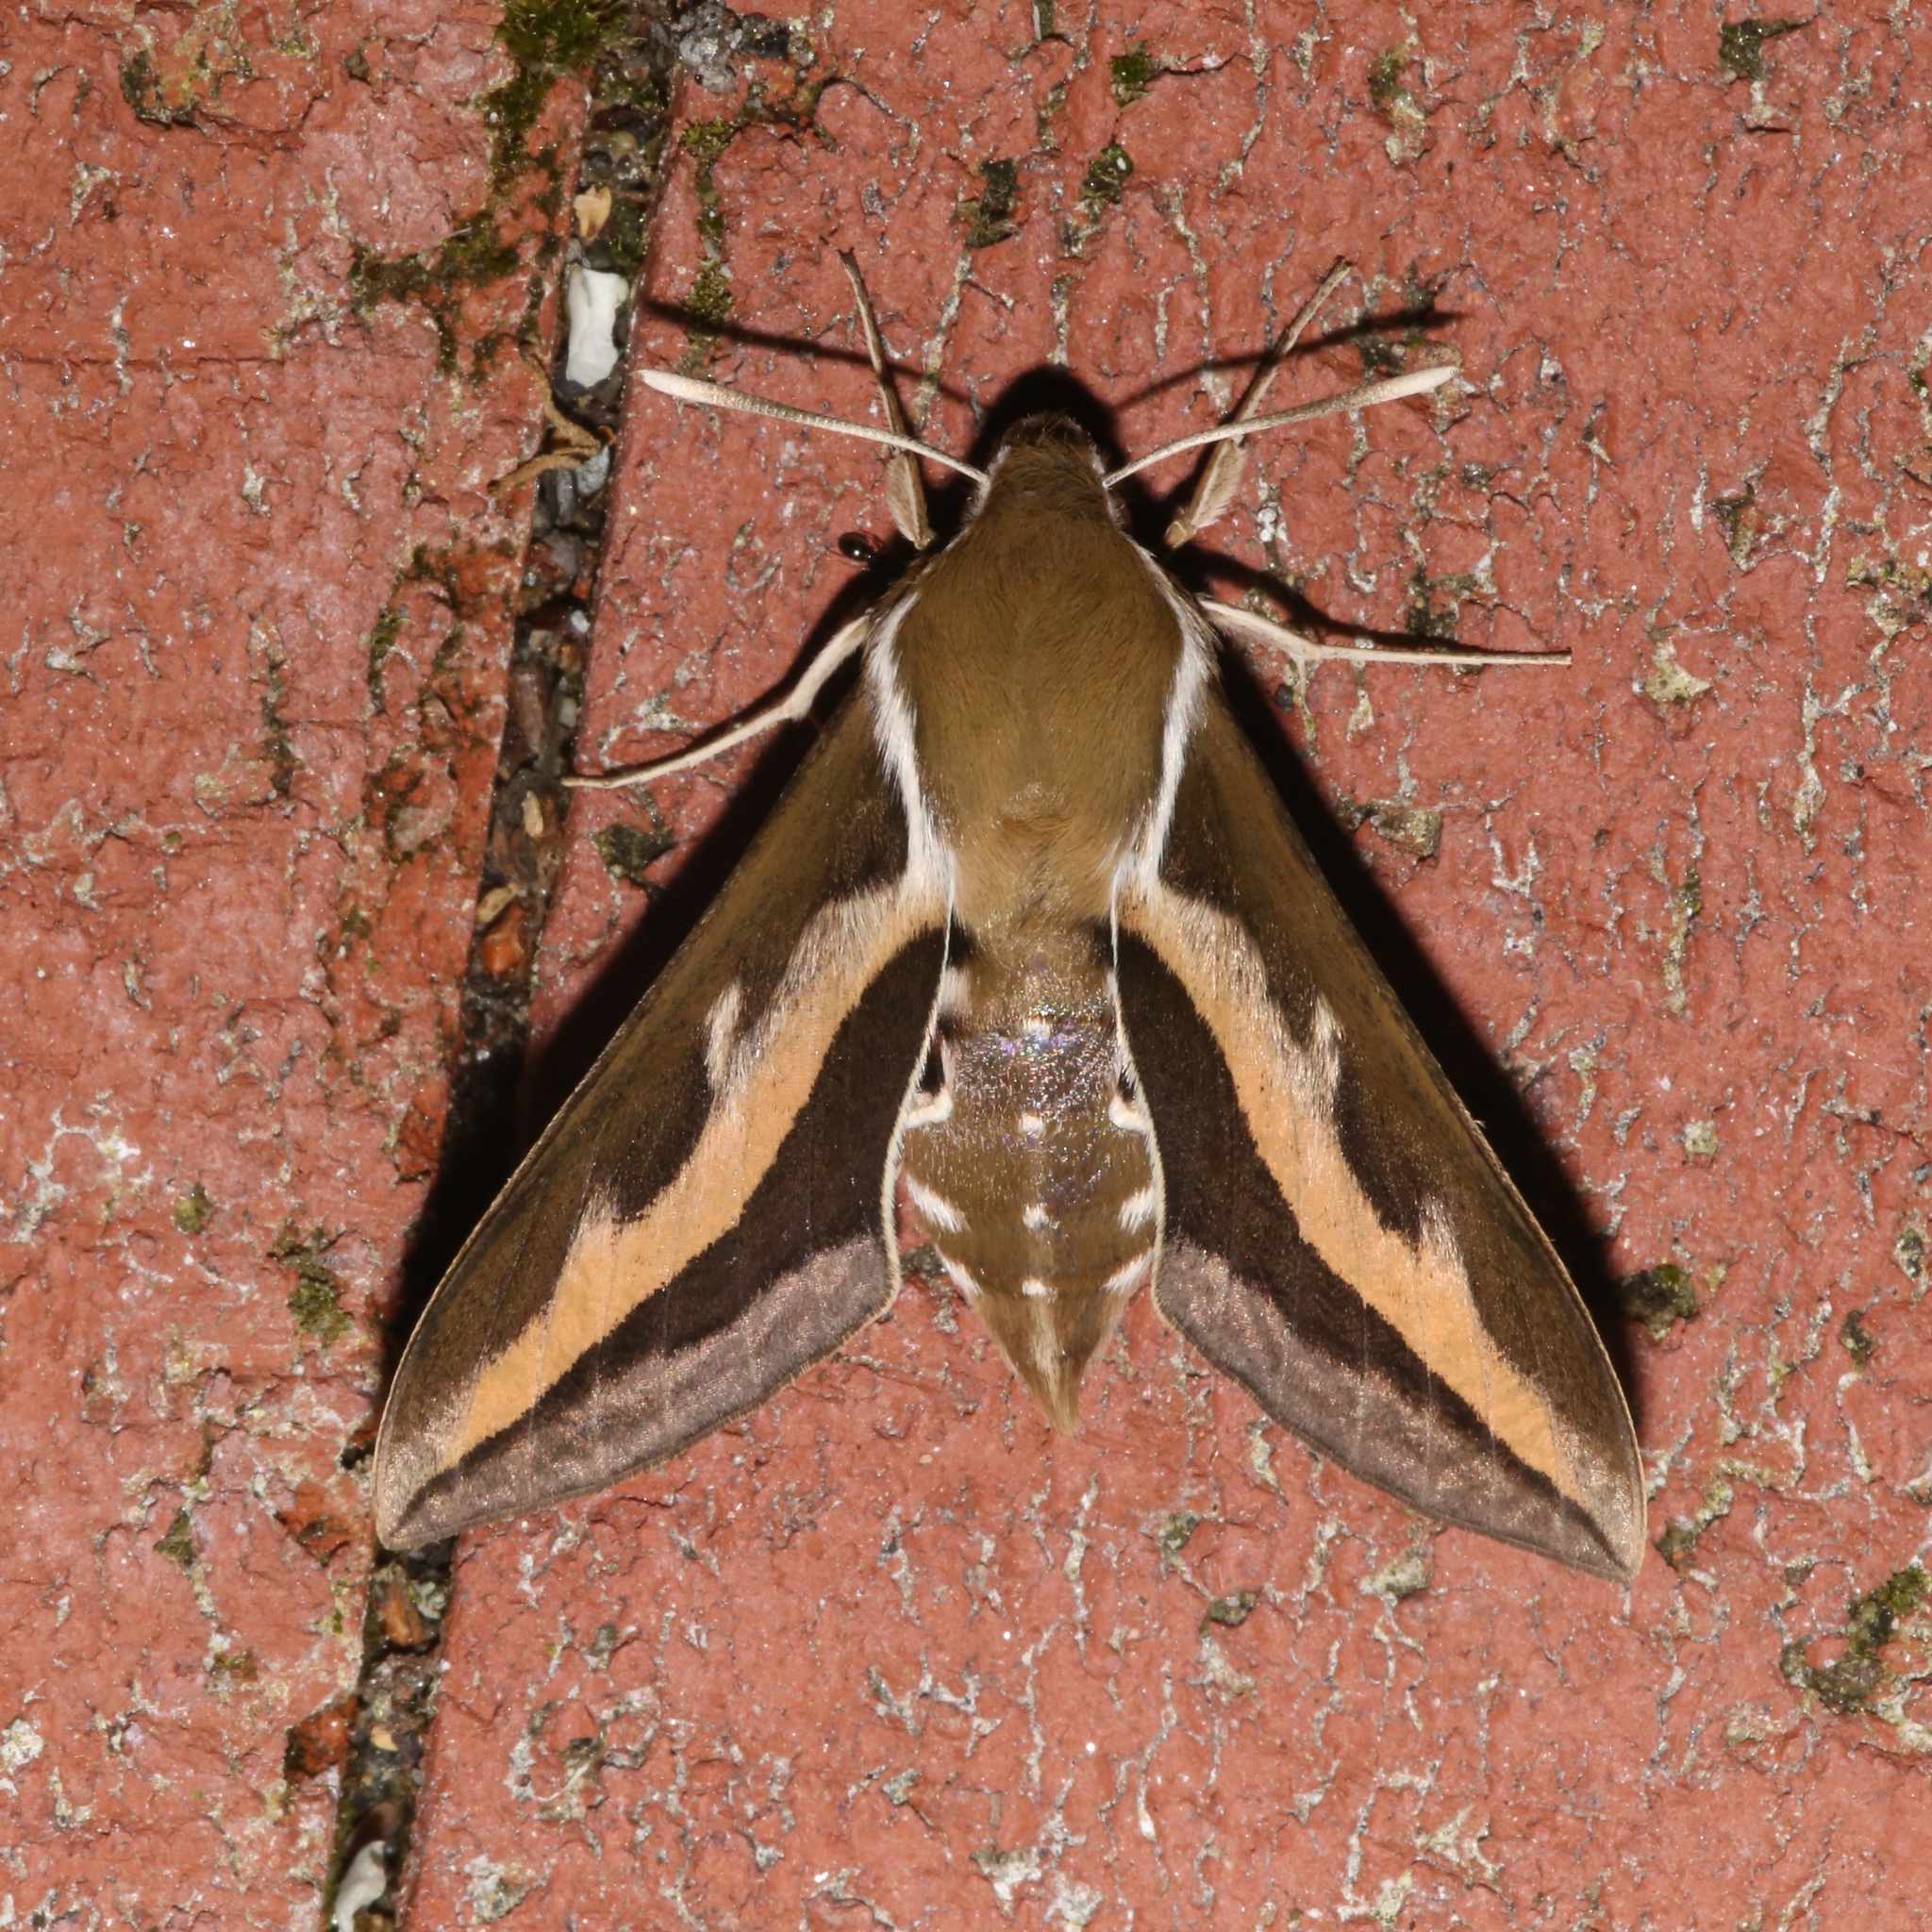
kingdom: Animalia
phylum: Arthropoda
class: Insecta
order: Lepidoptera
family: Sphingidae
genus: Hyles
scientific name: Hyles gallii
